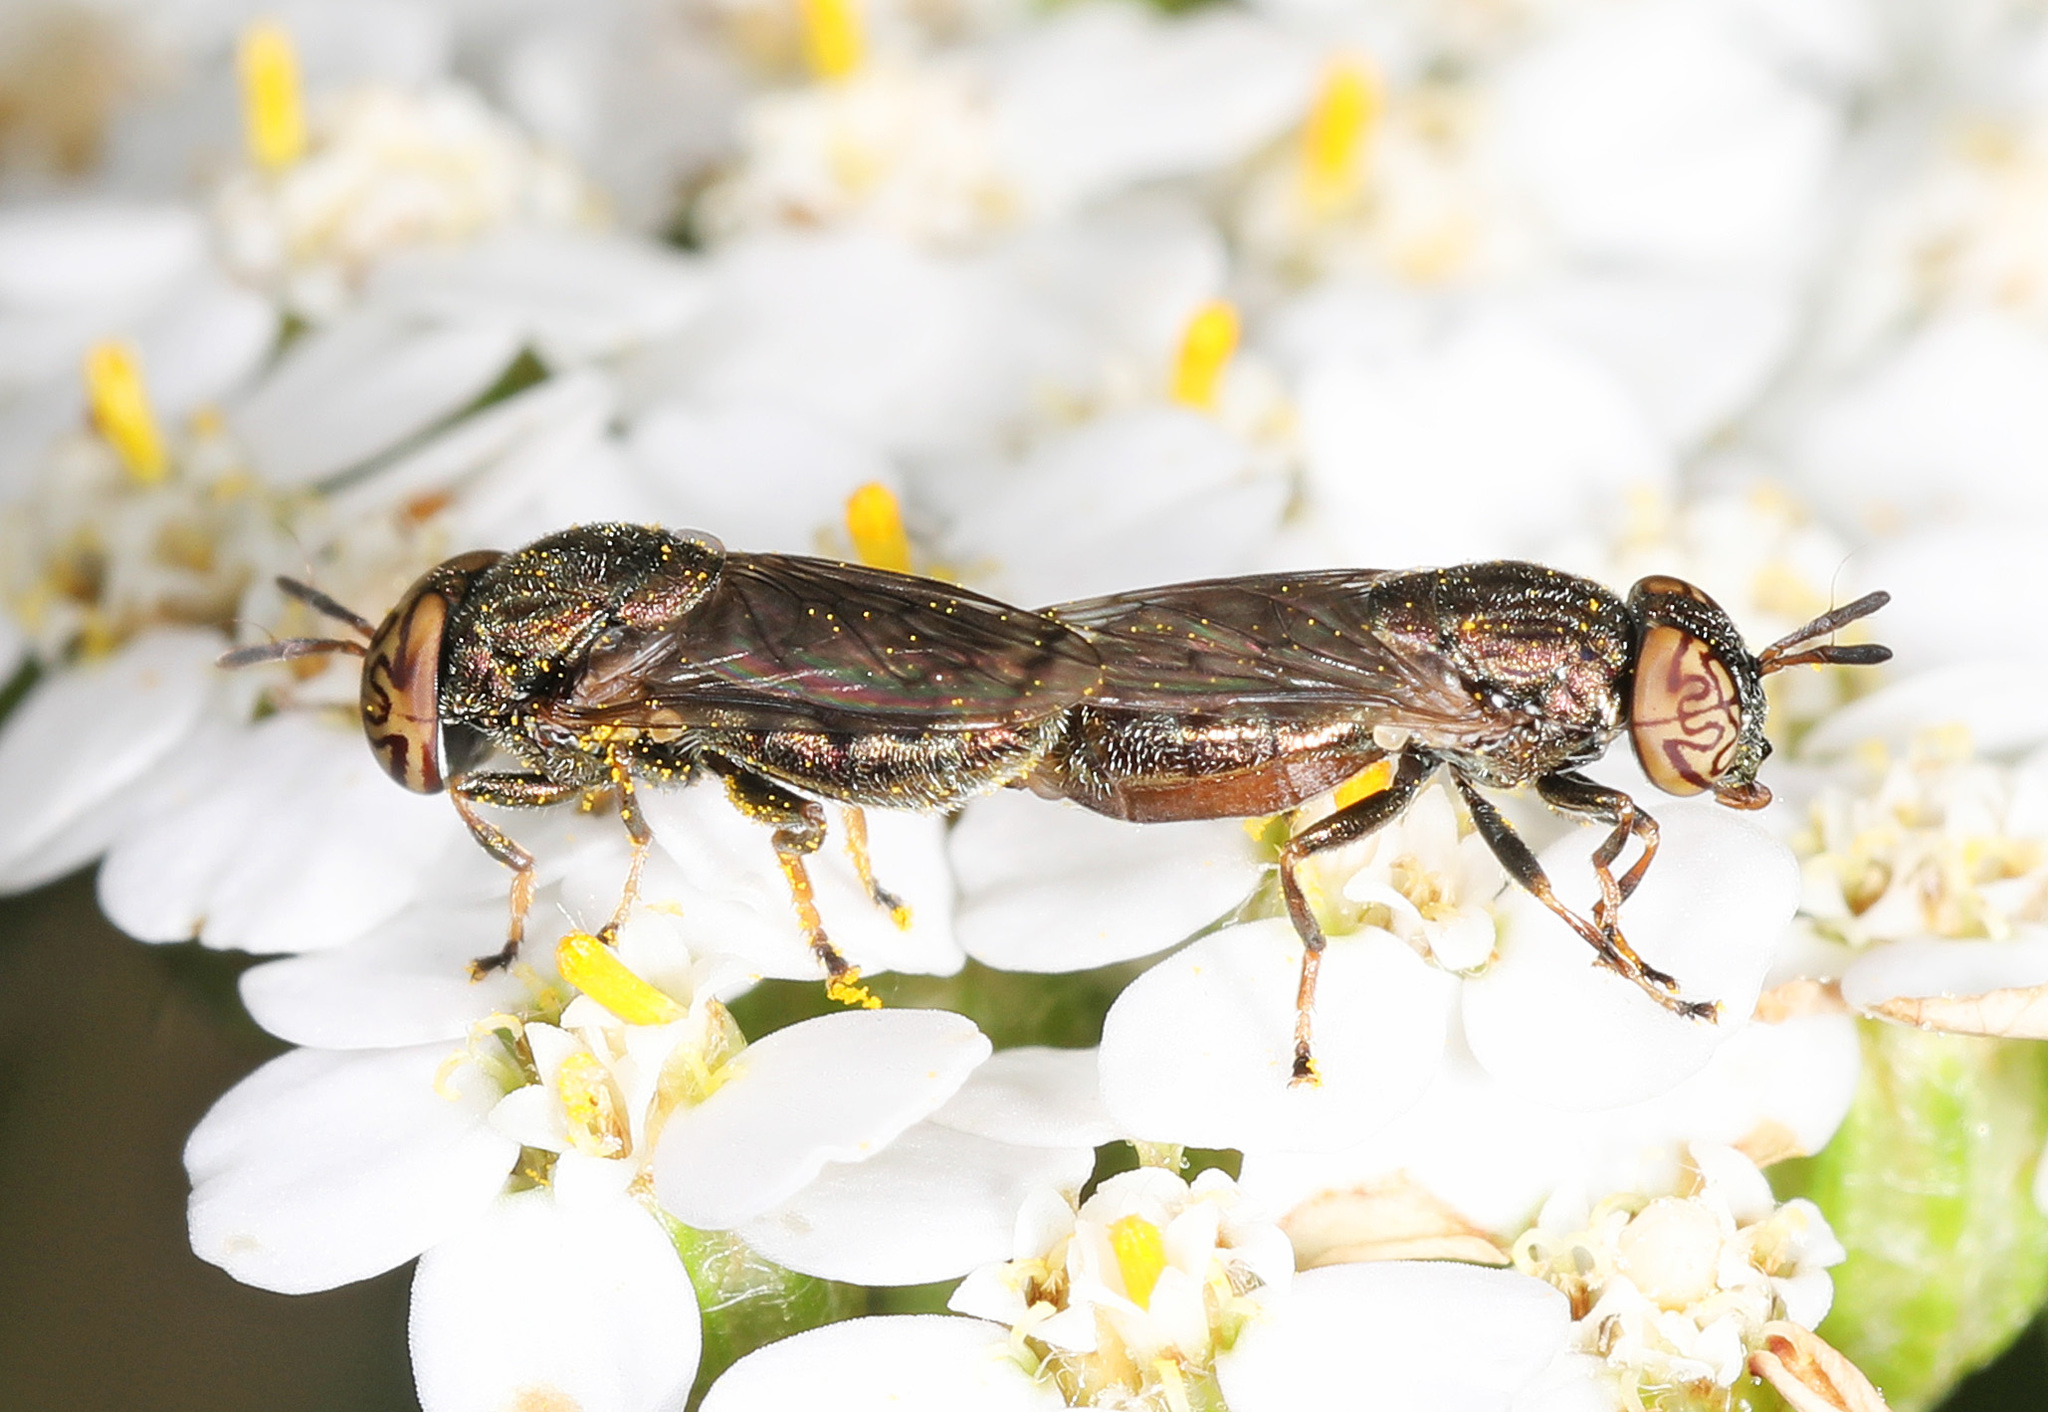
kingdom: Animalia
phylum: Arthropoda
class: Insecta
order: Diptera
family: Syrphidae
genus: Orthonevra
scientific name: Orthonevra nitida
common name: Wavy mucksucker
